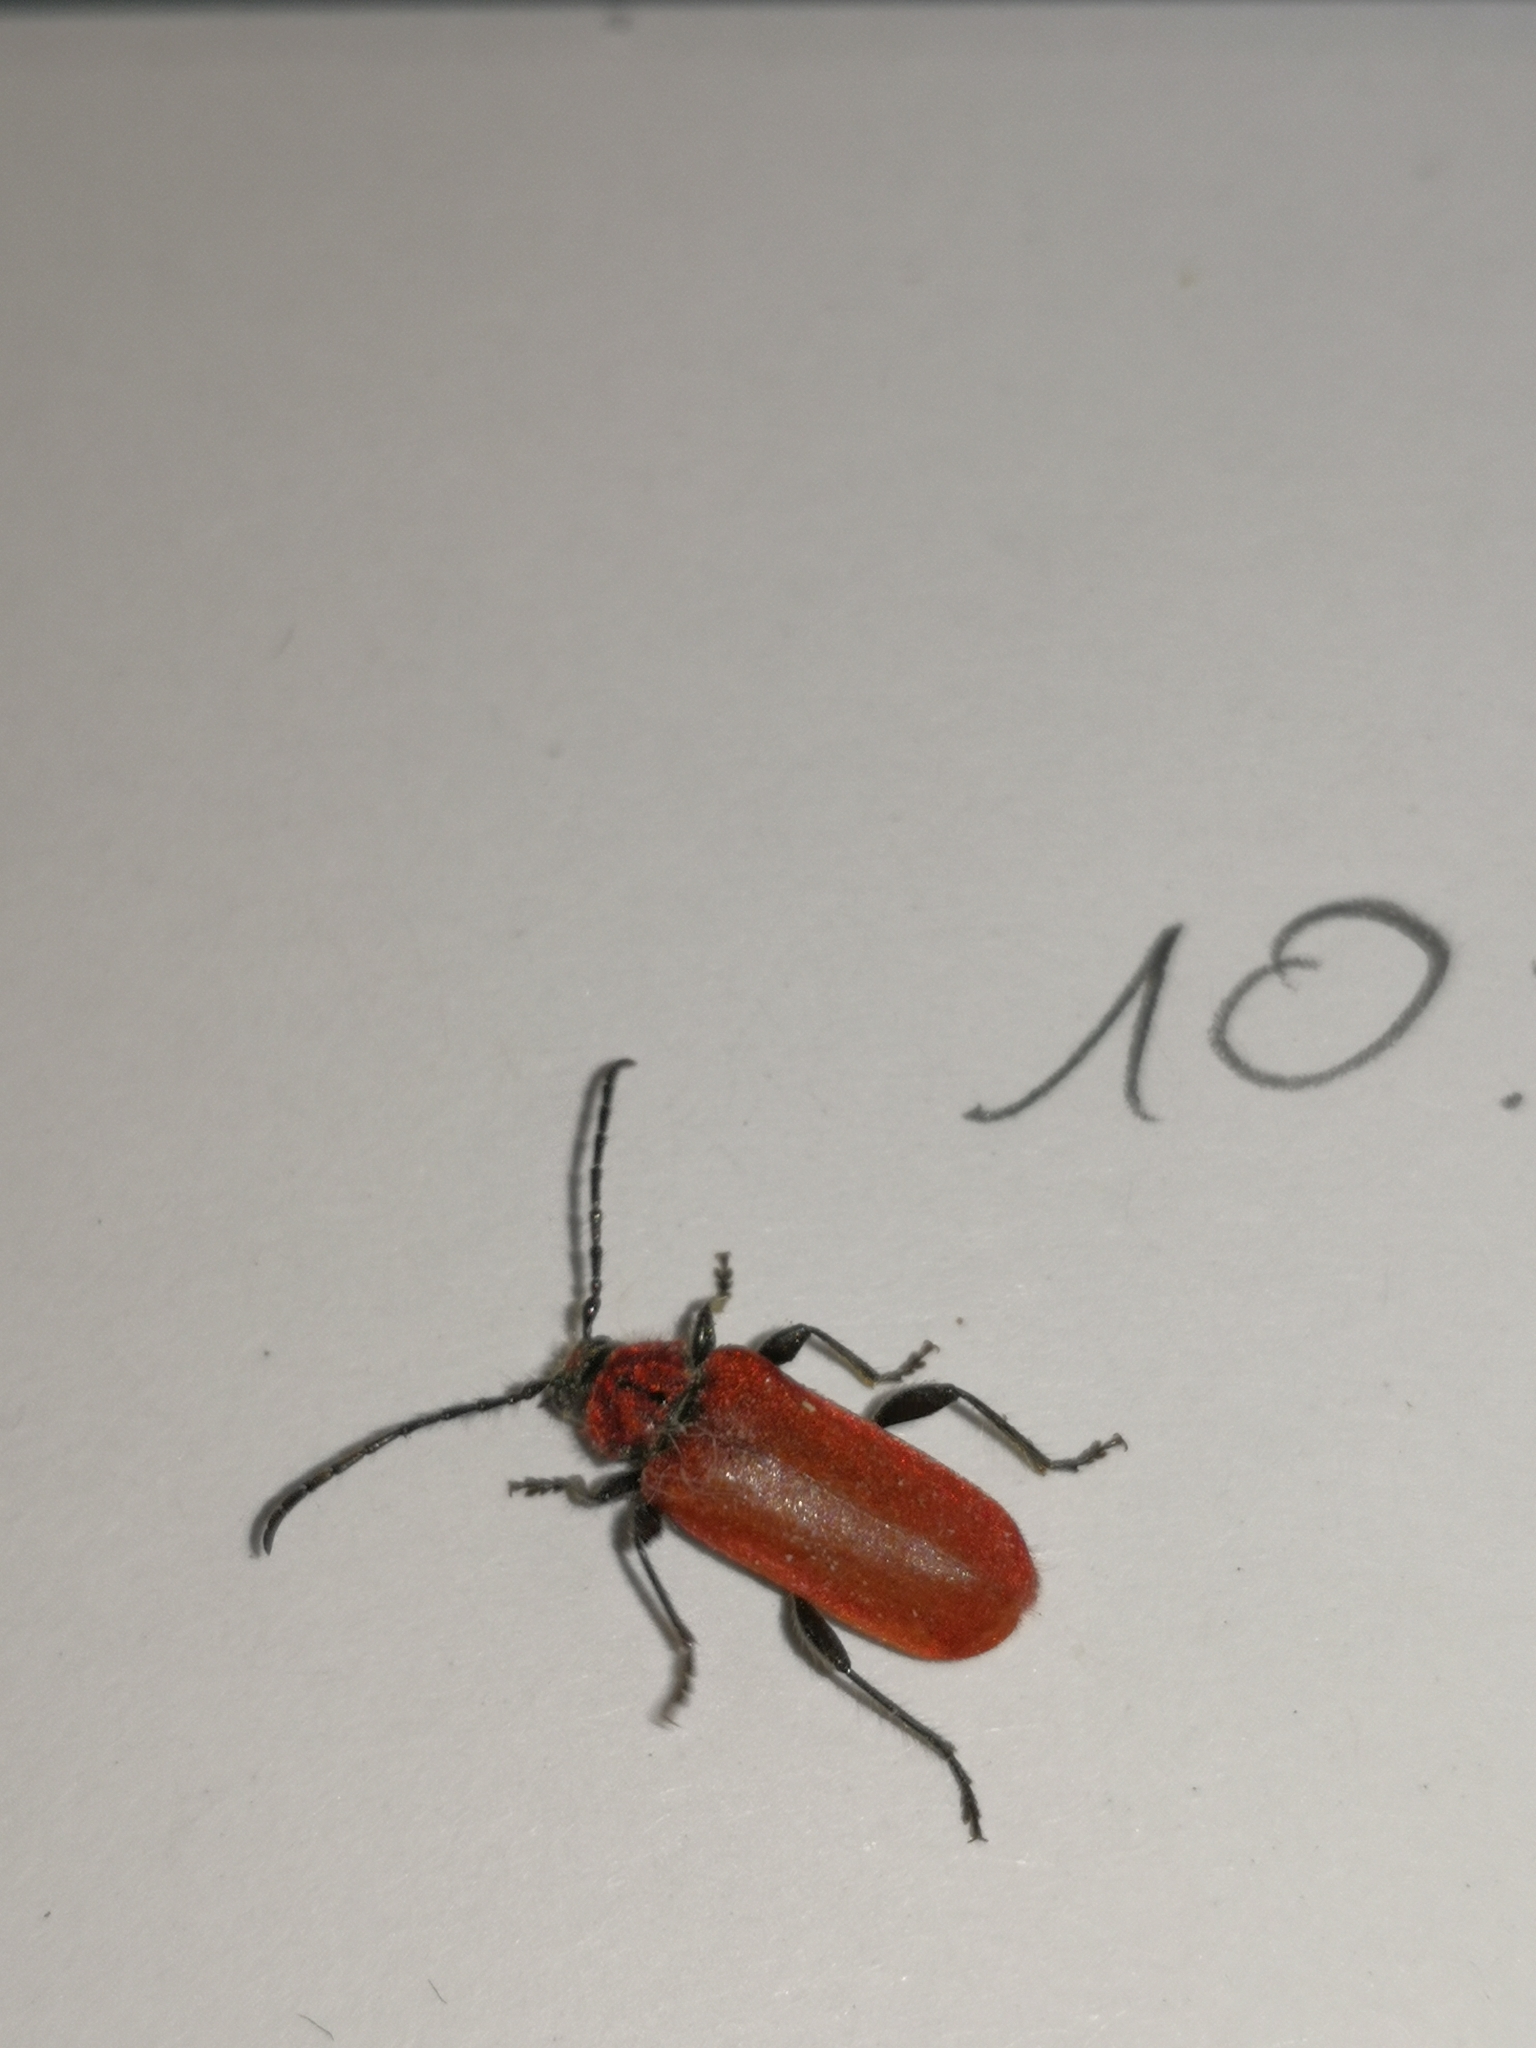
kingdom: Animalia
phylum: Arthropoda
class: Insecta
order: Coleoptera
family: Cerambycidae
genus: Pyrrhidium
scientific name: Pyrrhidium sanguineum
